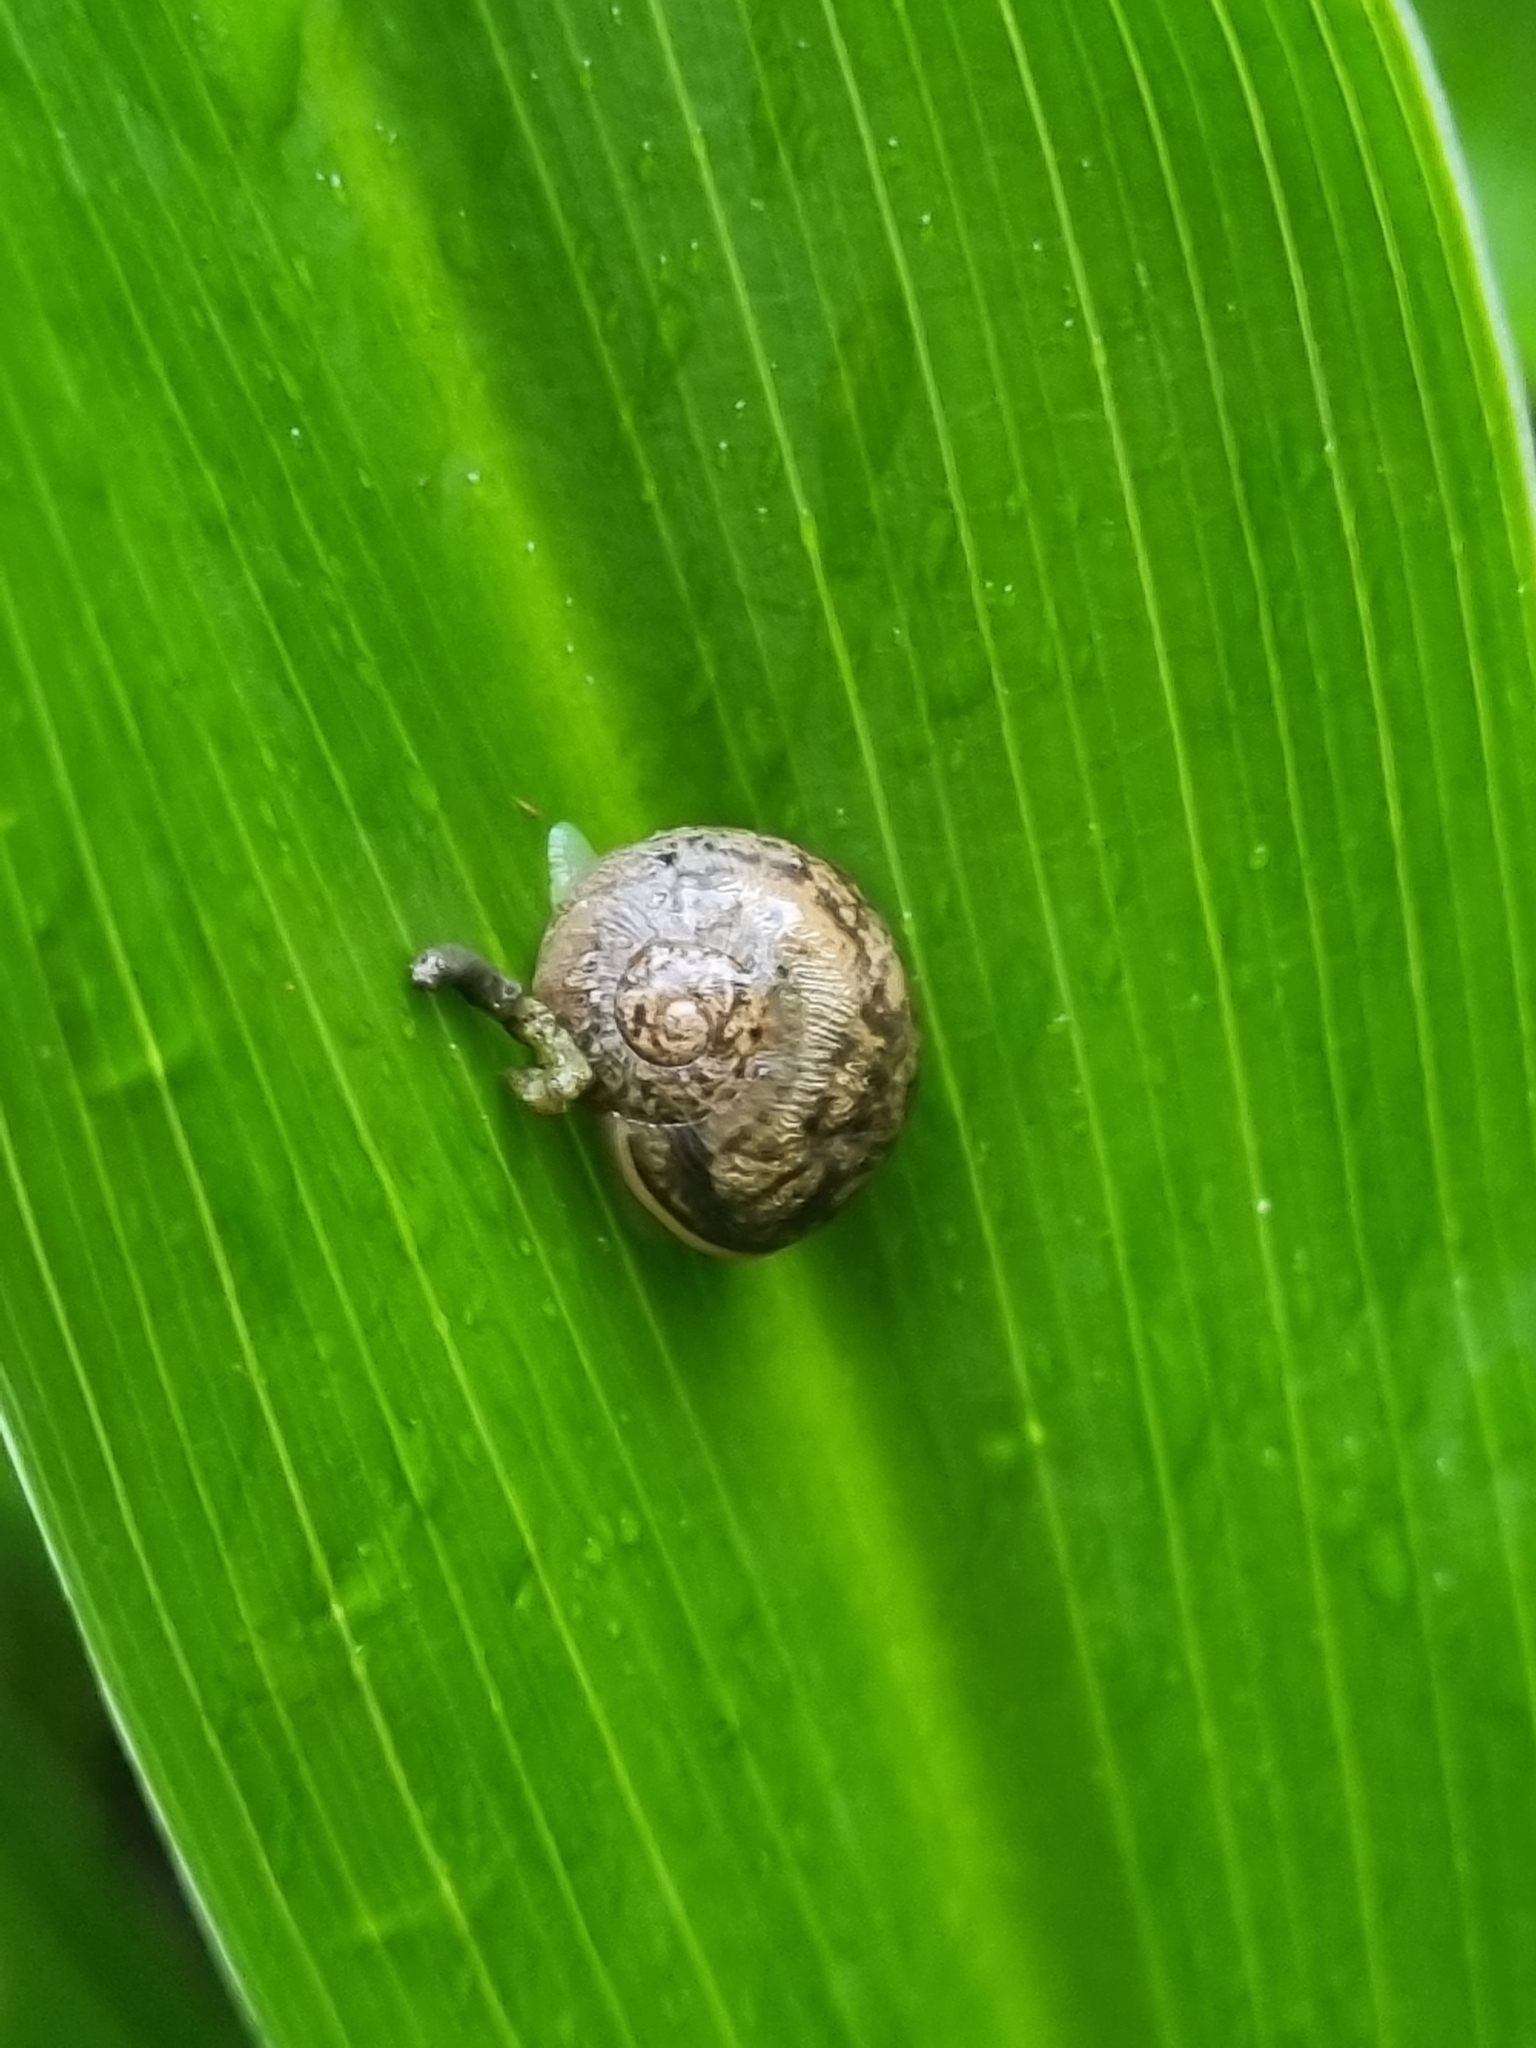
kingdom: Animalia
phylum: Mollusca
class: Gastropoda
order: Stylommatophora
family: Helicidae
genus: Cornu
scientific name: Cornu aspersum
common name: Brown garden snail
